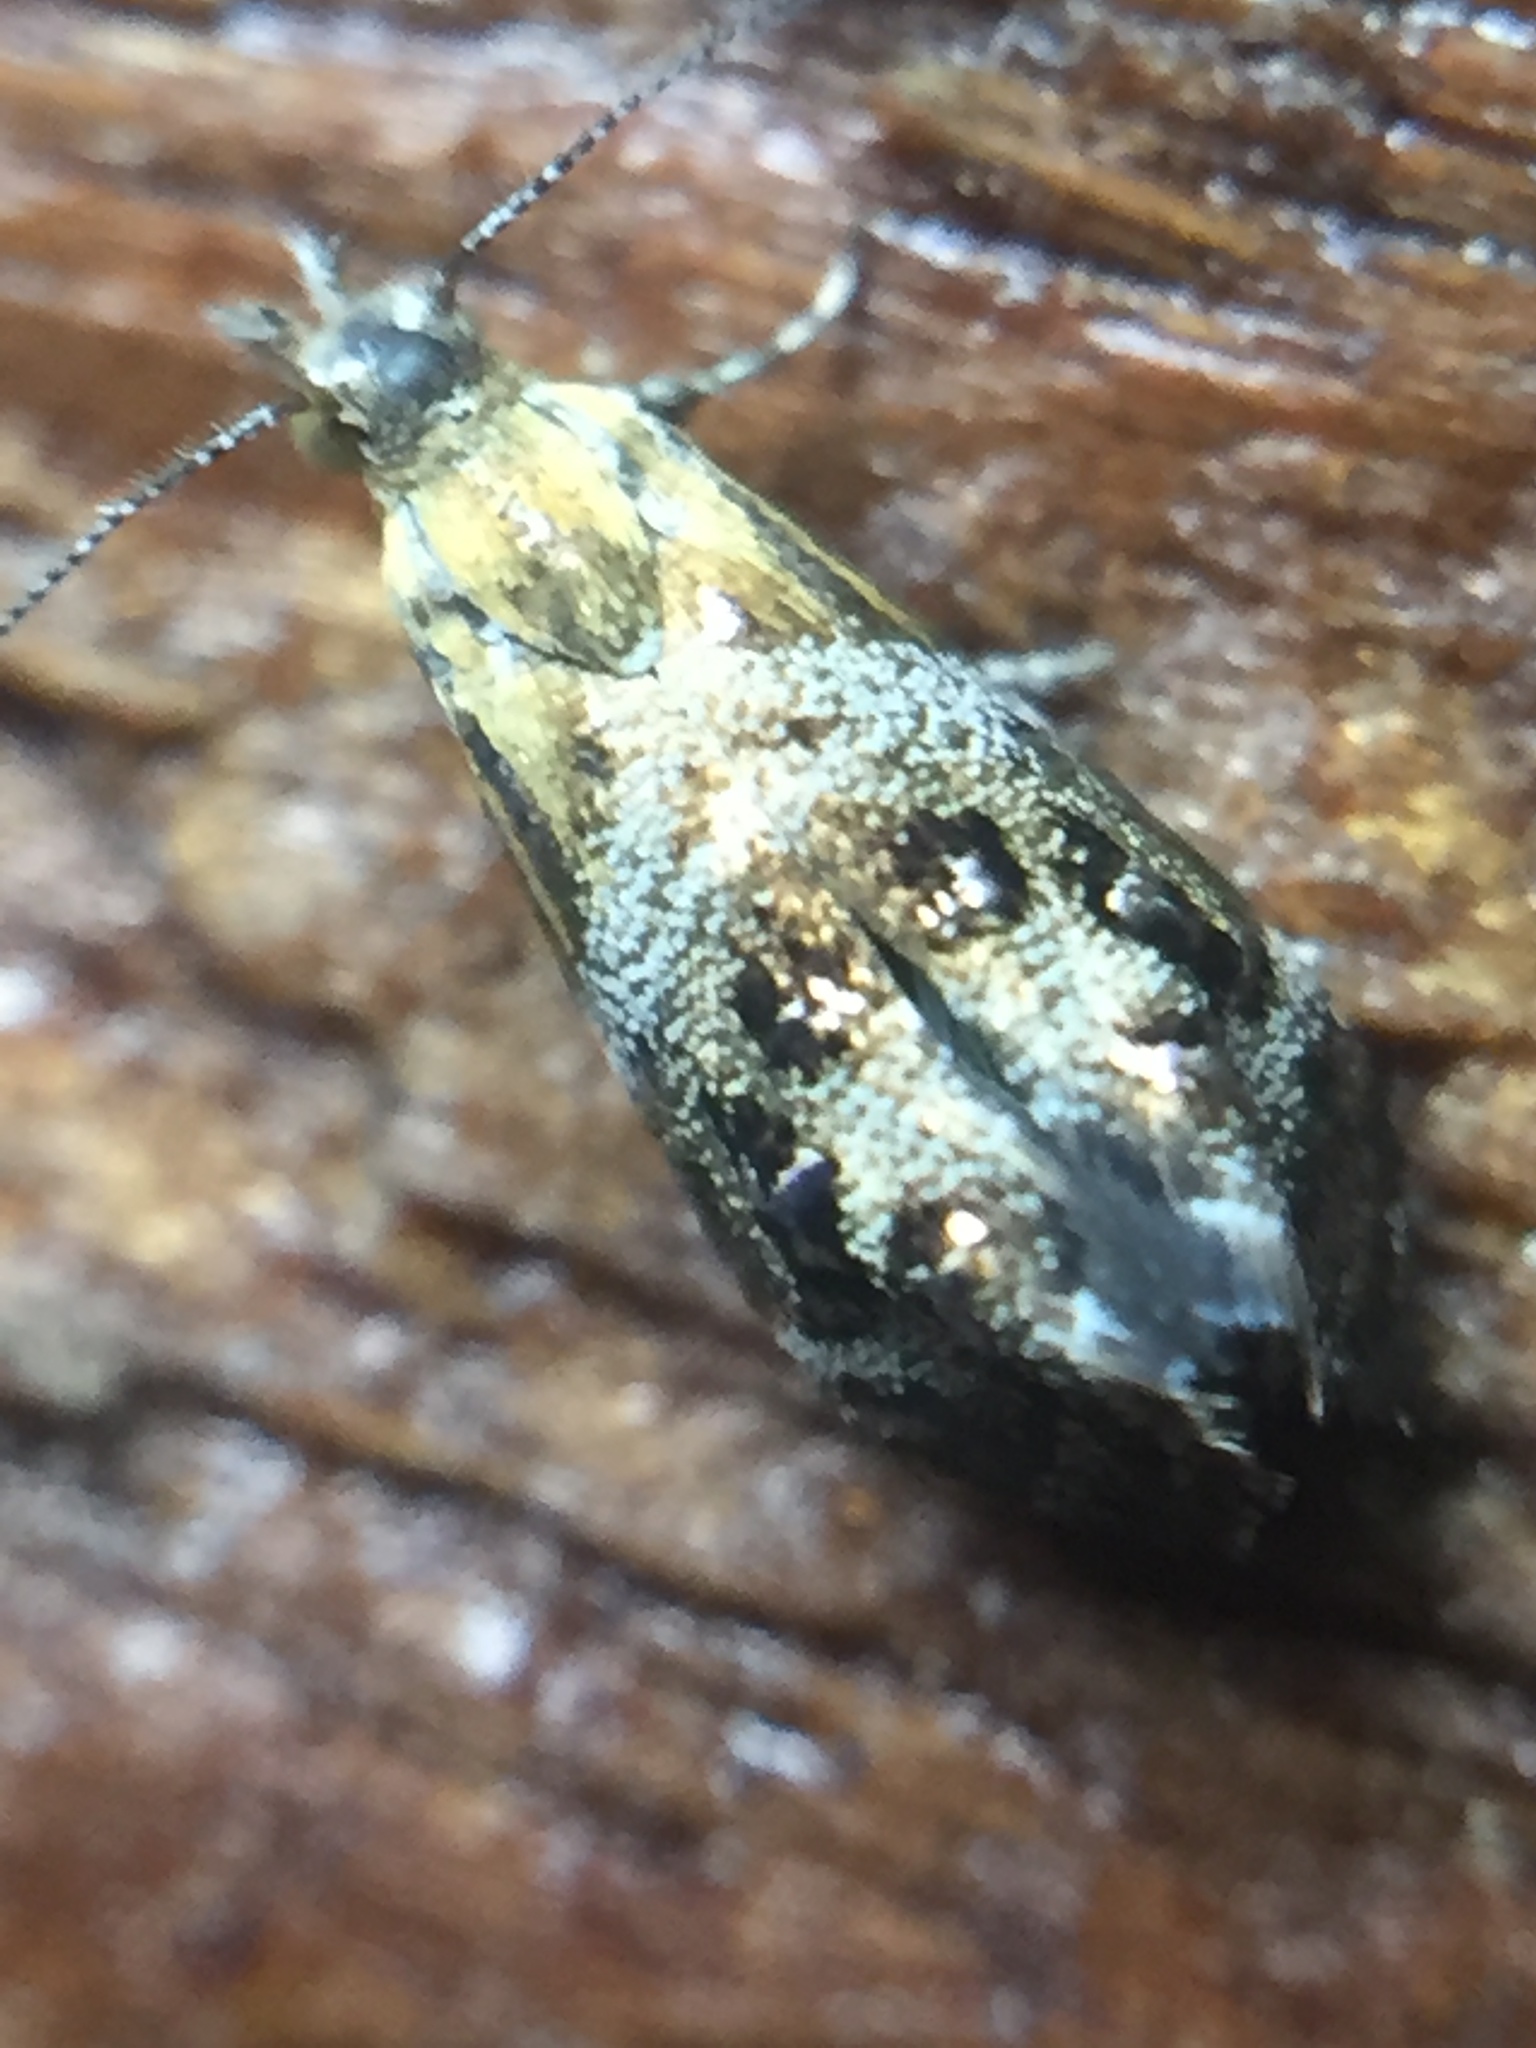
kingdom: Animalia
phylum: Arthropoda
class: Insecta
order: Lepidoptera
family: Choreutidae
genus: Tebenna
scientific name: Tebenna micalis
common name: Vagrant twitcher
